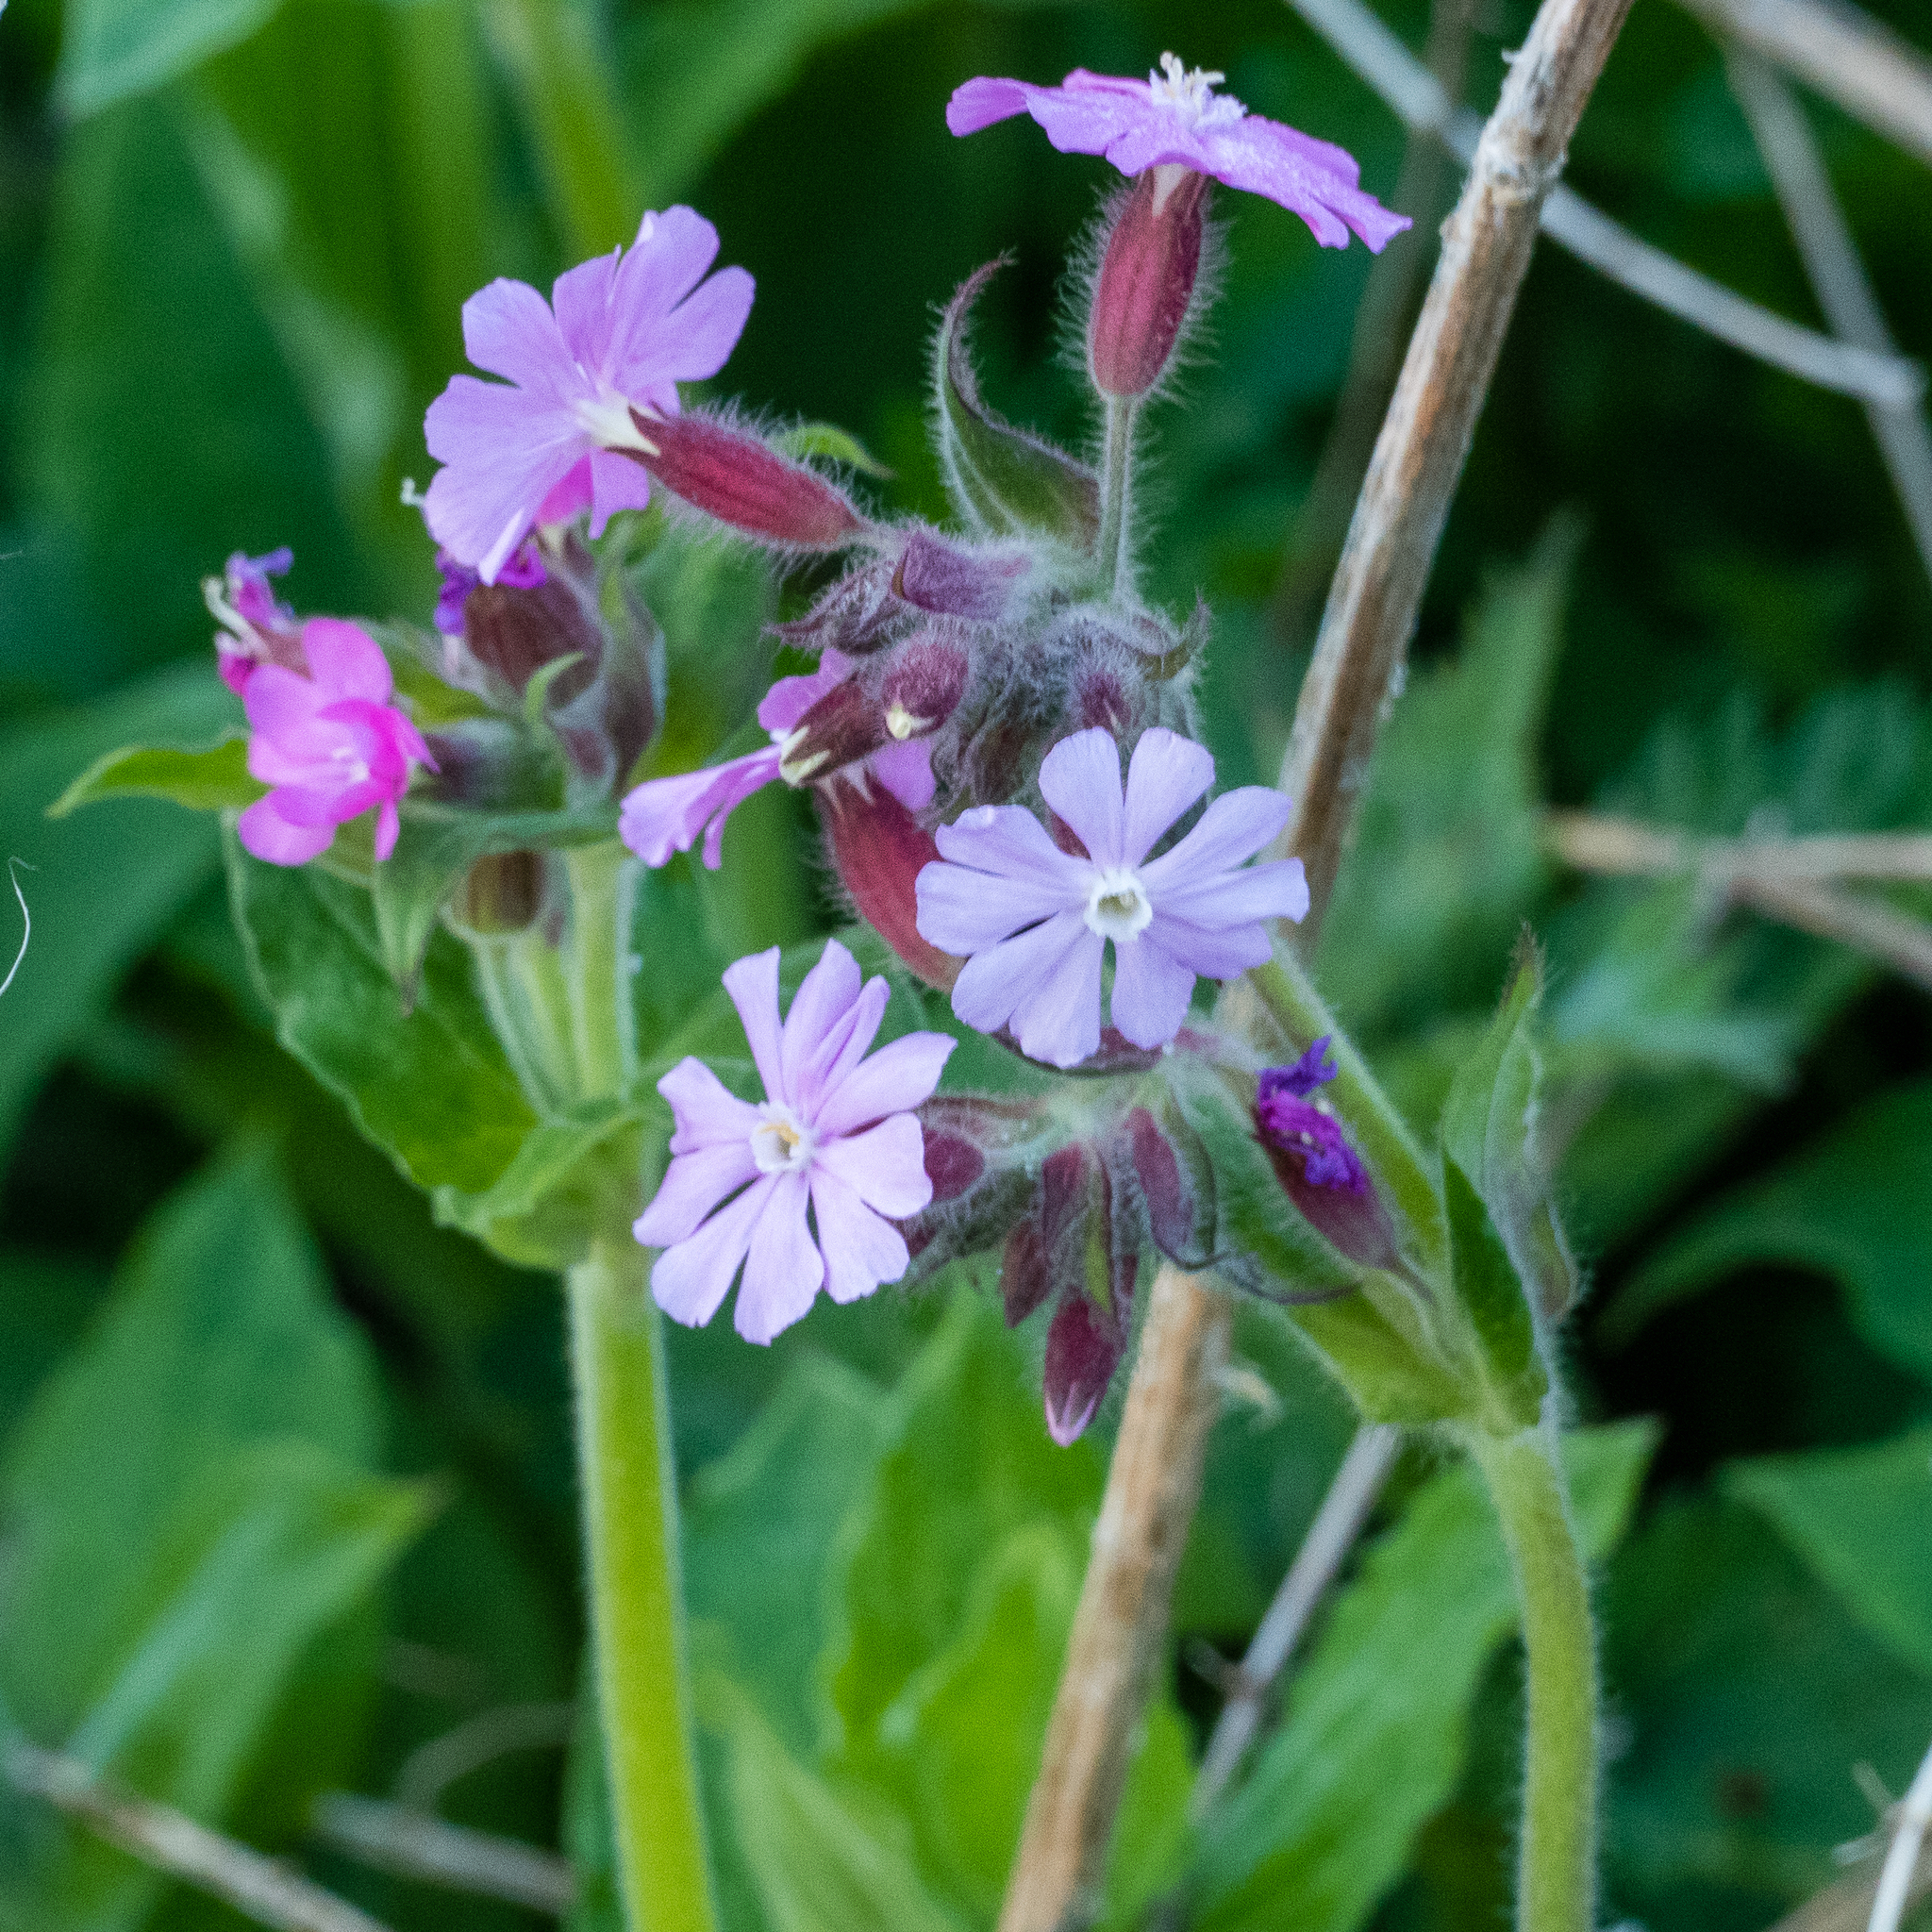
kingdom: Plantae
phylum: Tracheophyta
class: Magnoliopsida
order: Caryophyllales
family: Caryophyllaceae
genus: Silene
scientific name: Silene dioica
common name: Red campion
